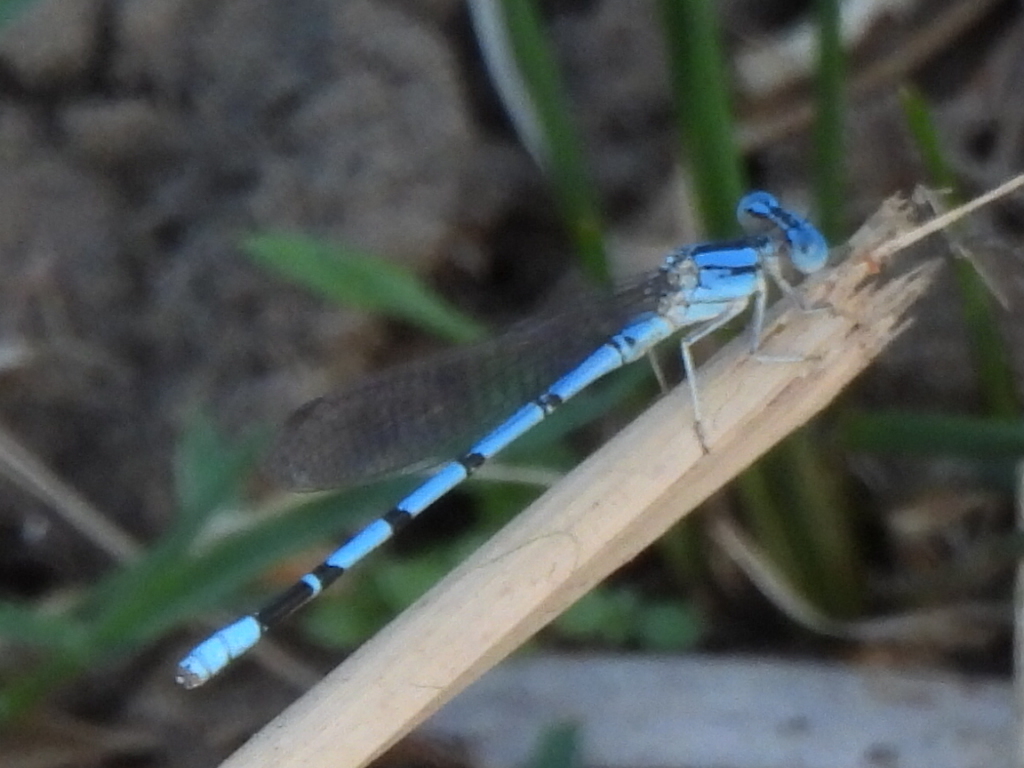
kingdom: Animalia
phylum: Arthropoda
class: Insecta
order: Odonata
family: Coenagrionidae
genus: Argia
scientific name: Argia nahuana
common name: Aztec dancer
